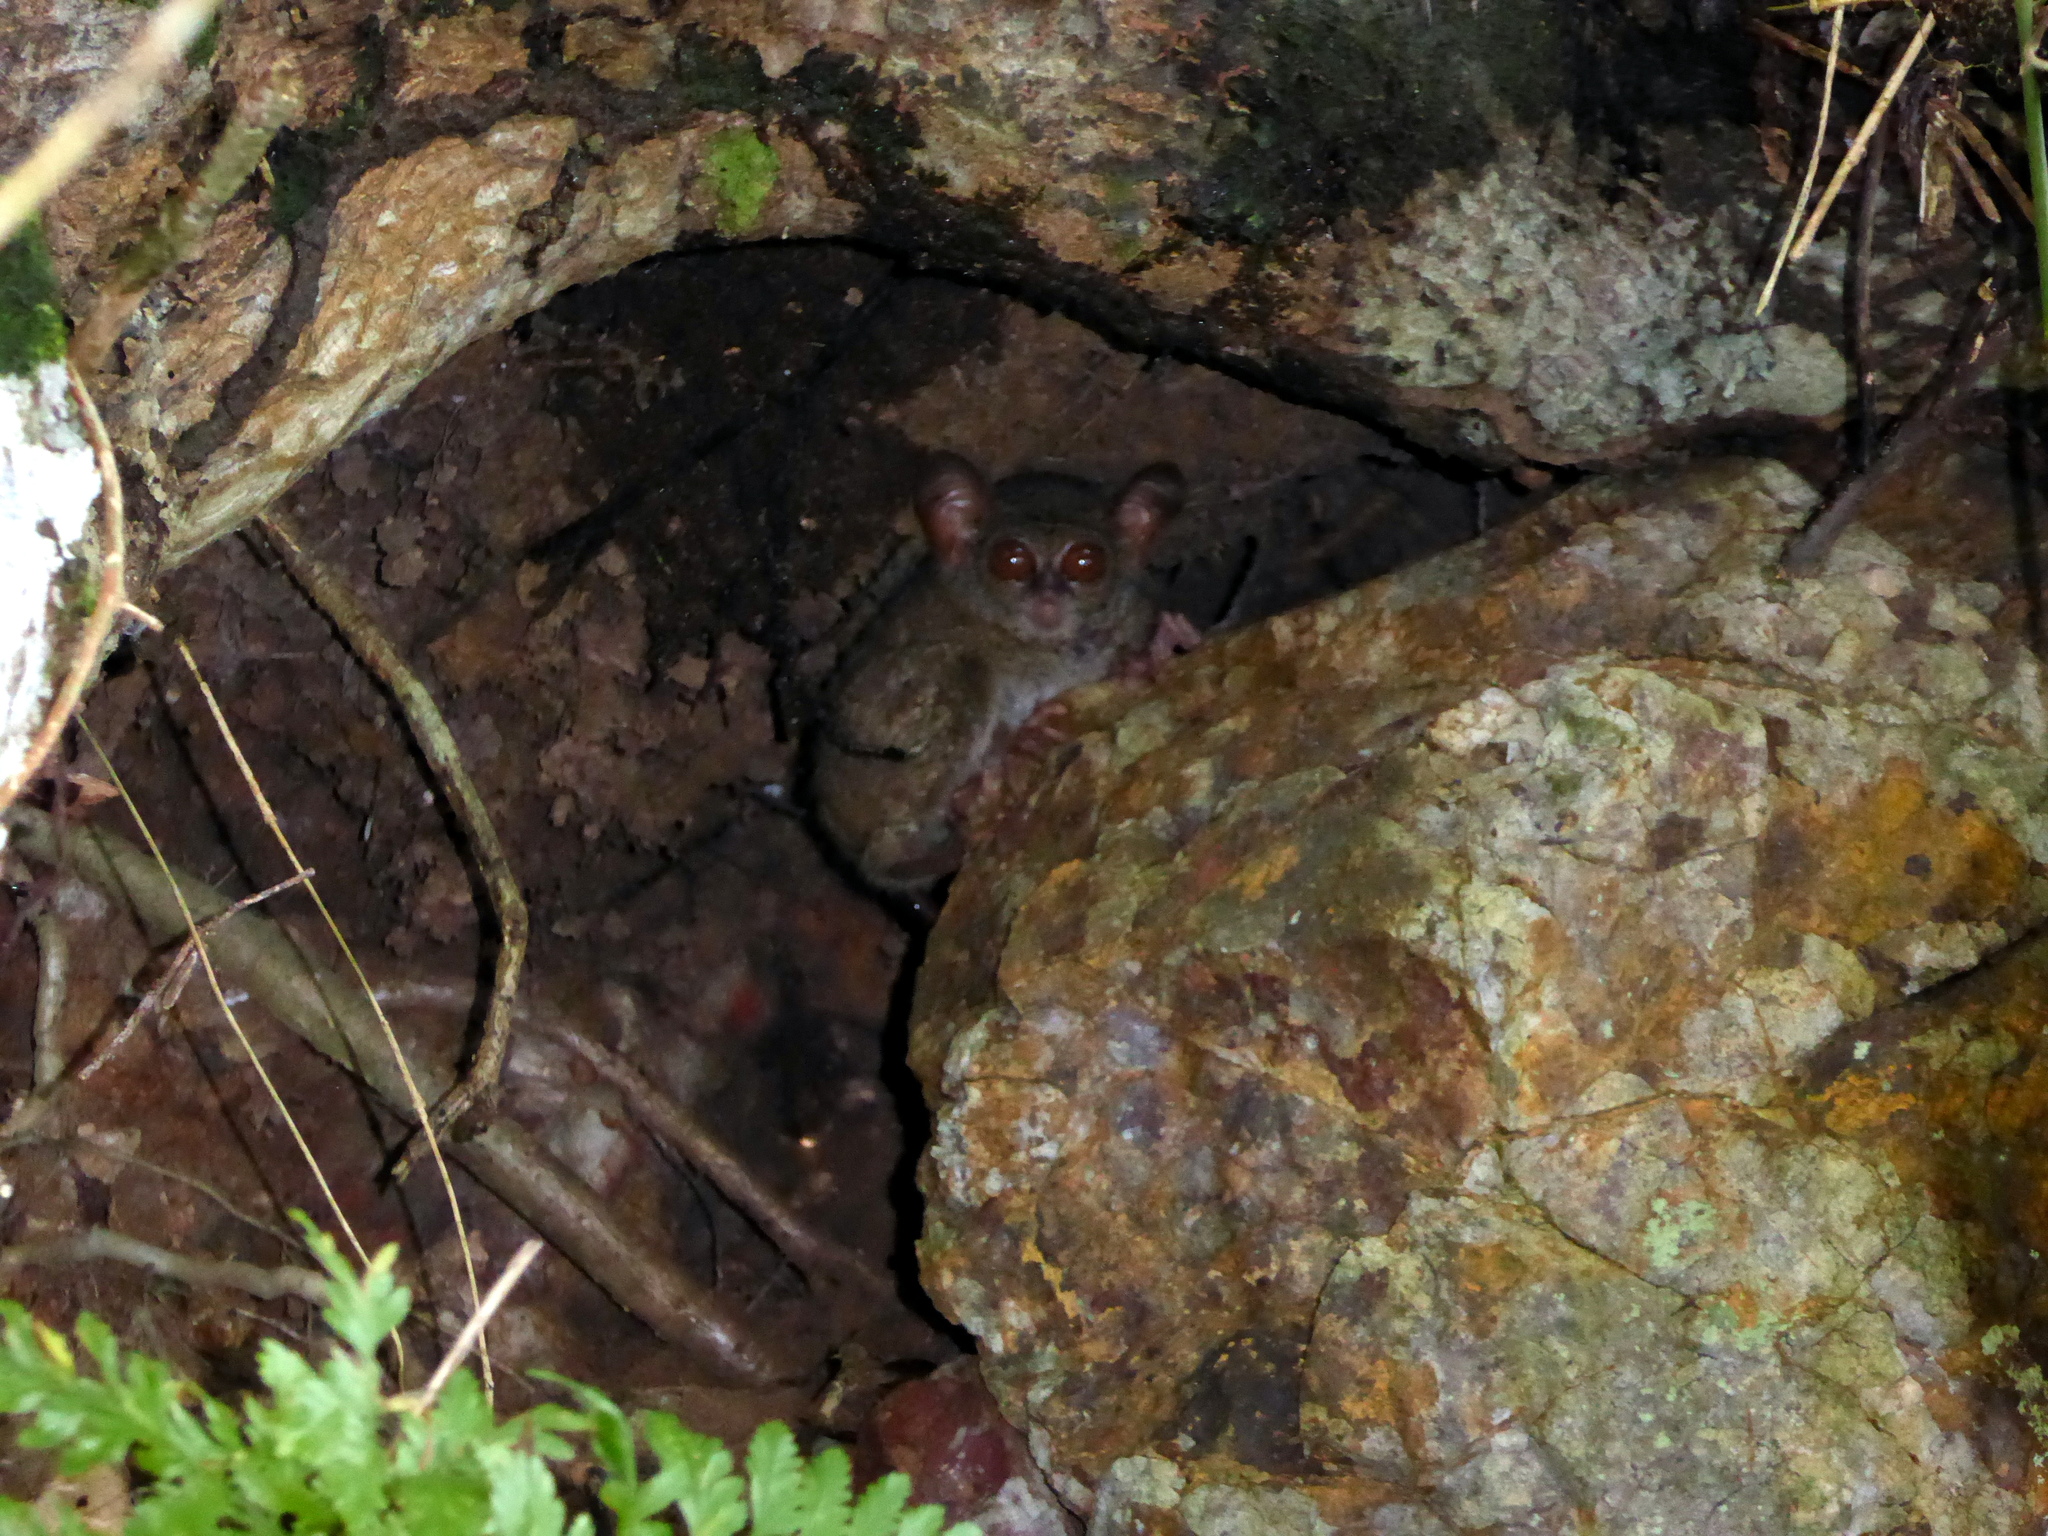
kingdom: Animalia
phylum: Chordata
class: Mammalia
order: Primates
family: Tarsiidae
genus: Tarsius
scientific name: Tarsius spectrumgurskyae
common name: Gursky's spectral tarsier
